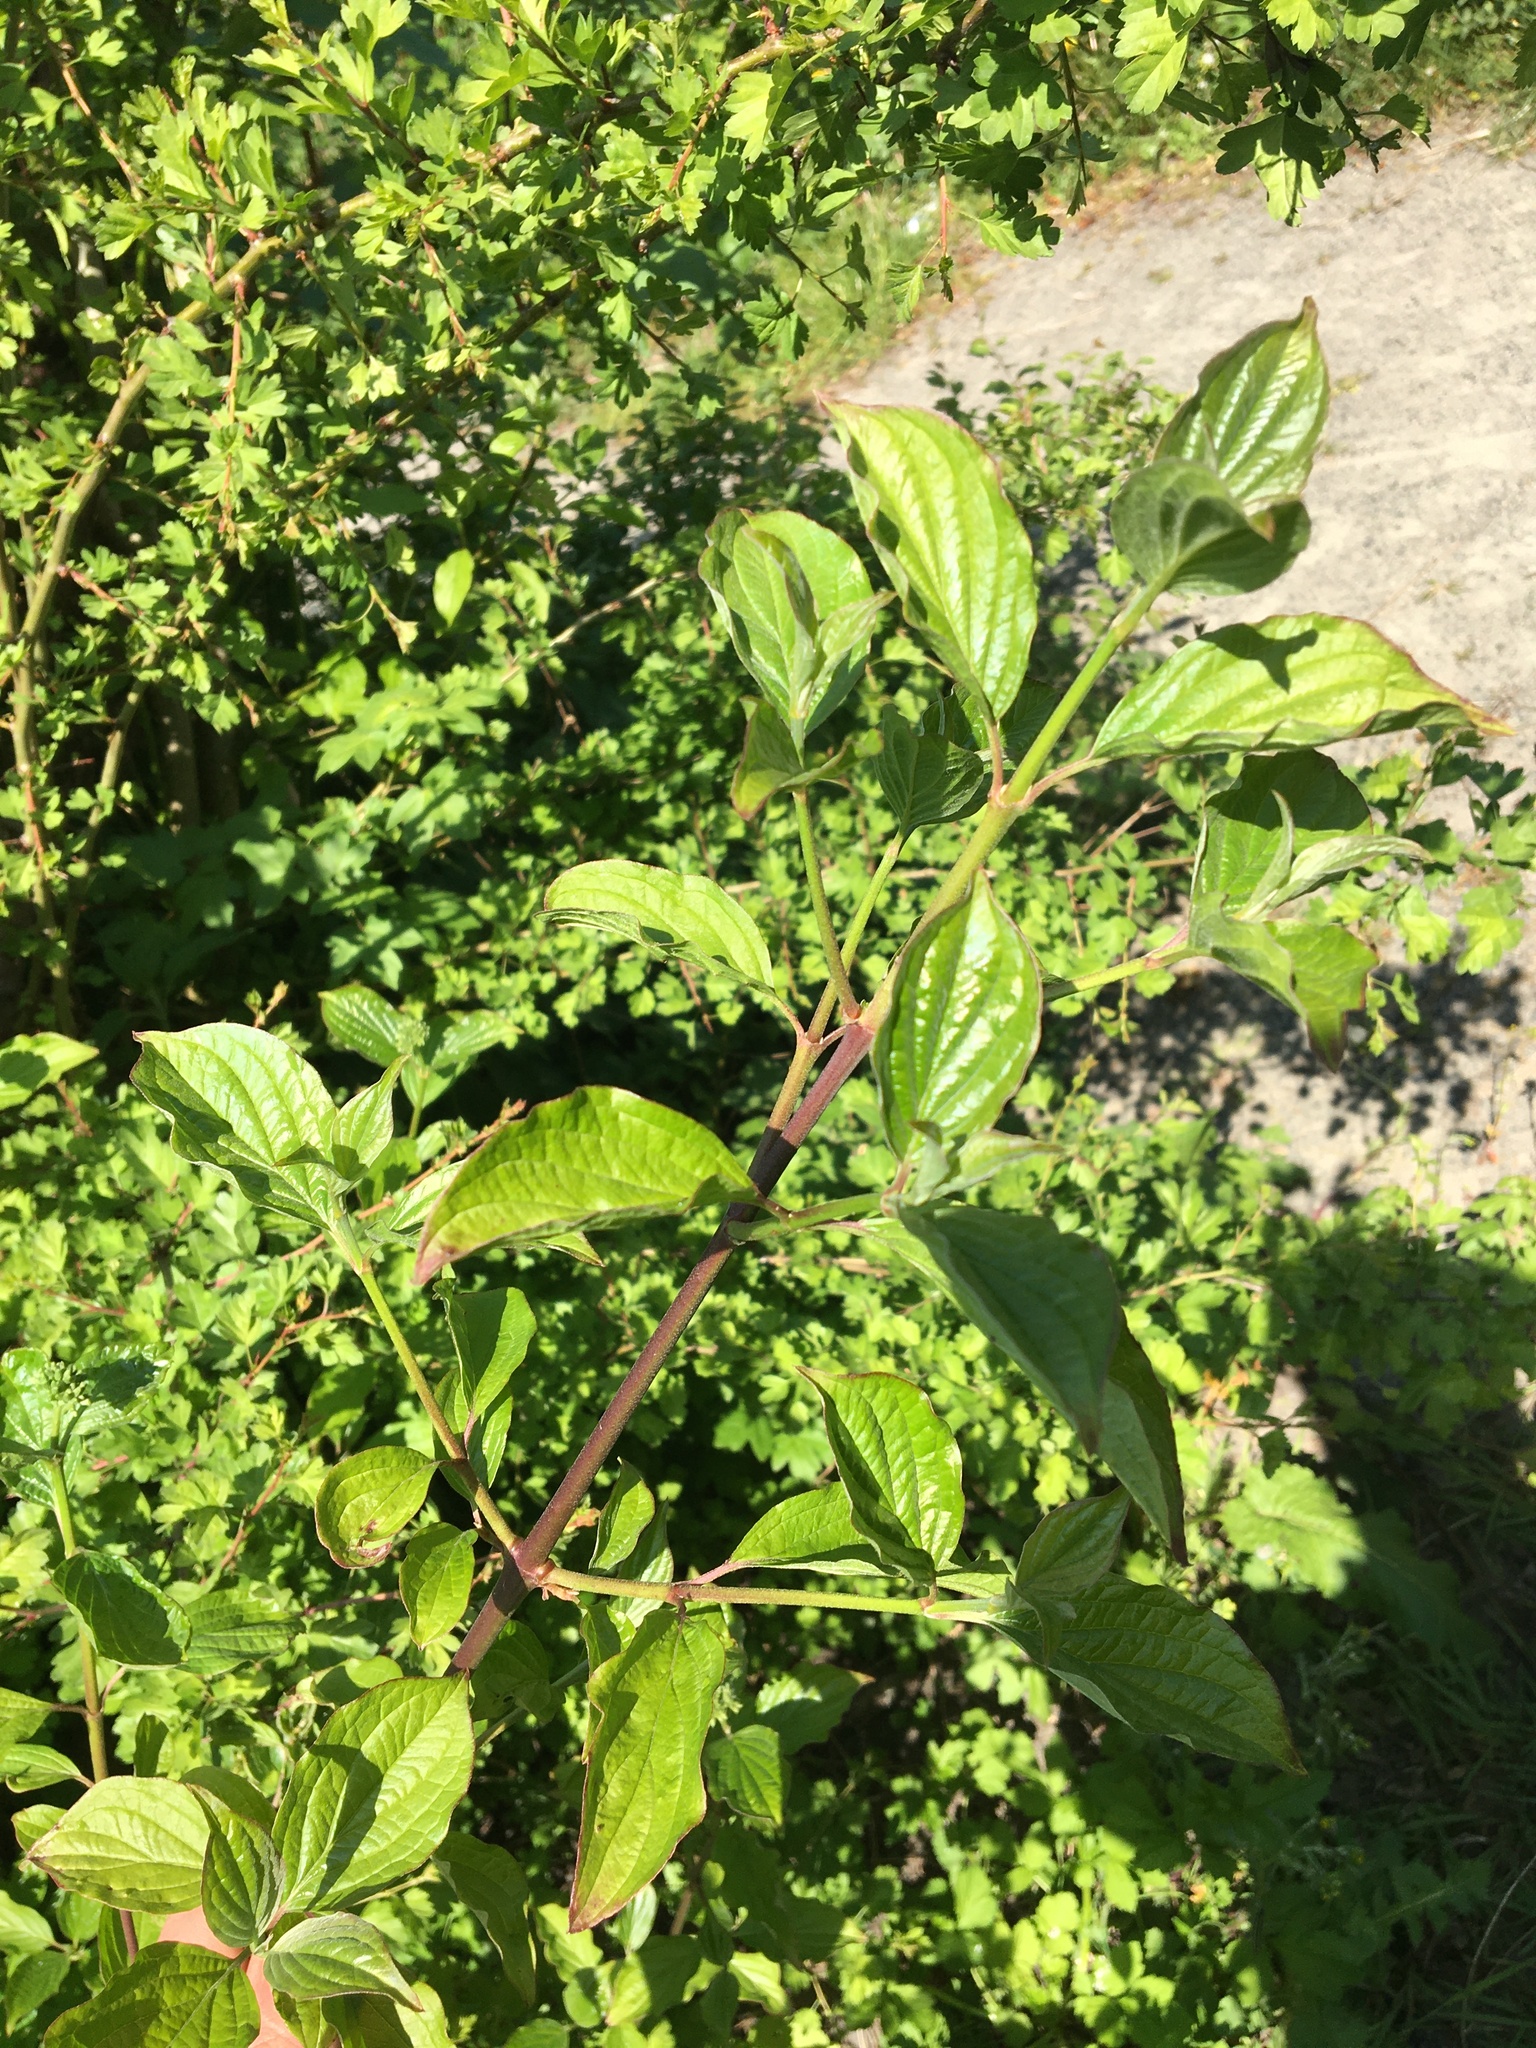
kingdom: Plantae
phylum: Tracheophyta
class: Magnoliopsida
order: Cornales
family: Cornaceae
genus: Cornus
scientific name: Cornus sanguinea
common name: Dogwood
